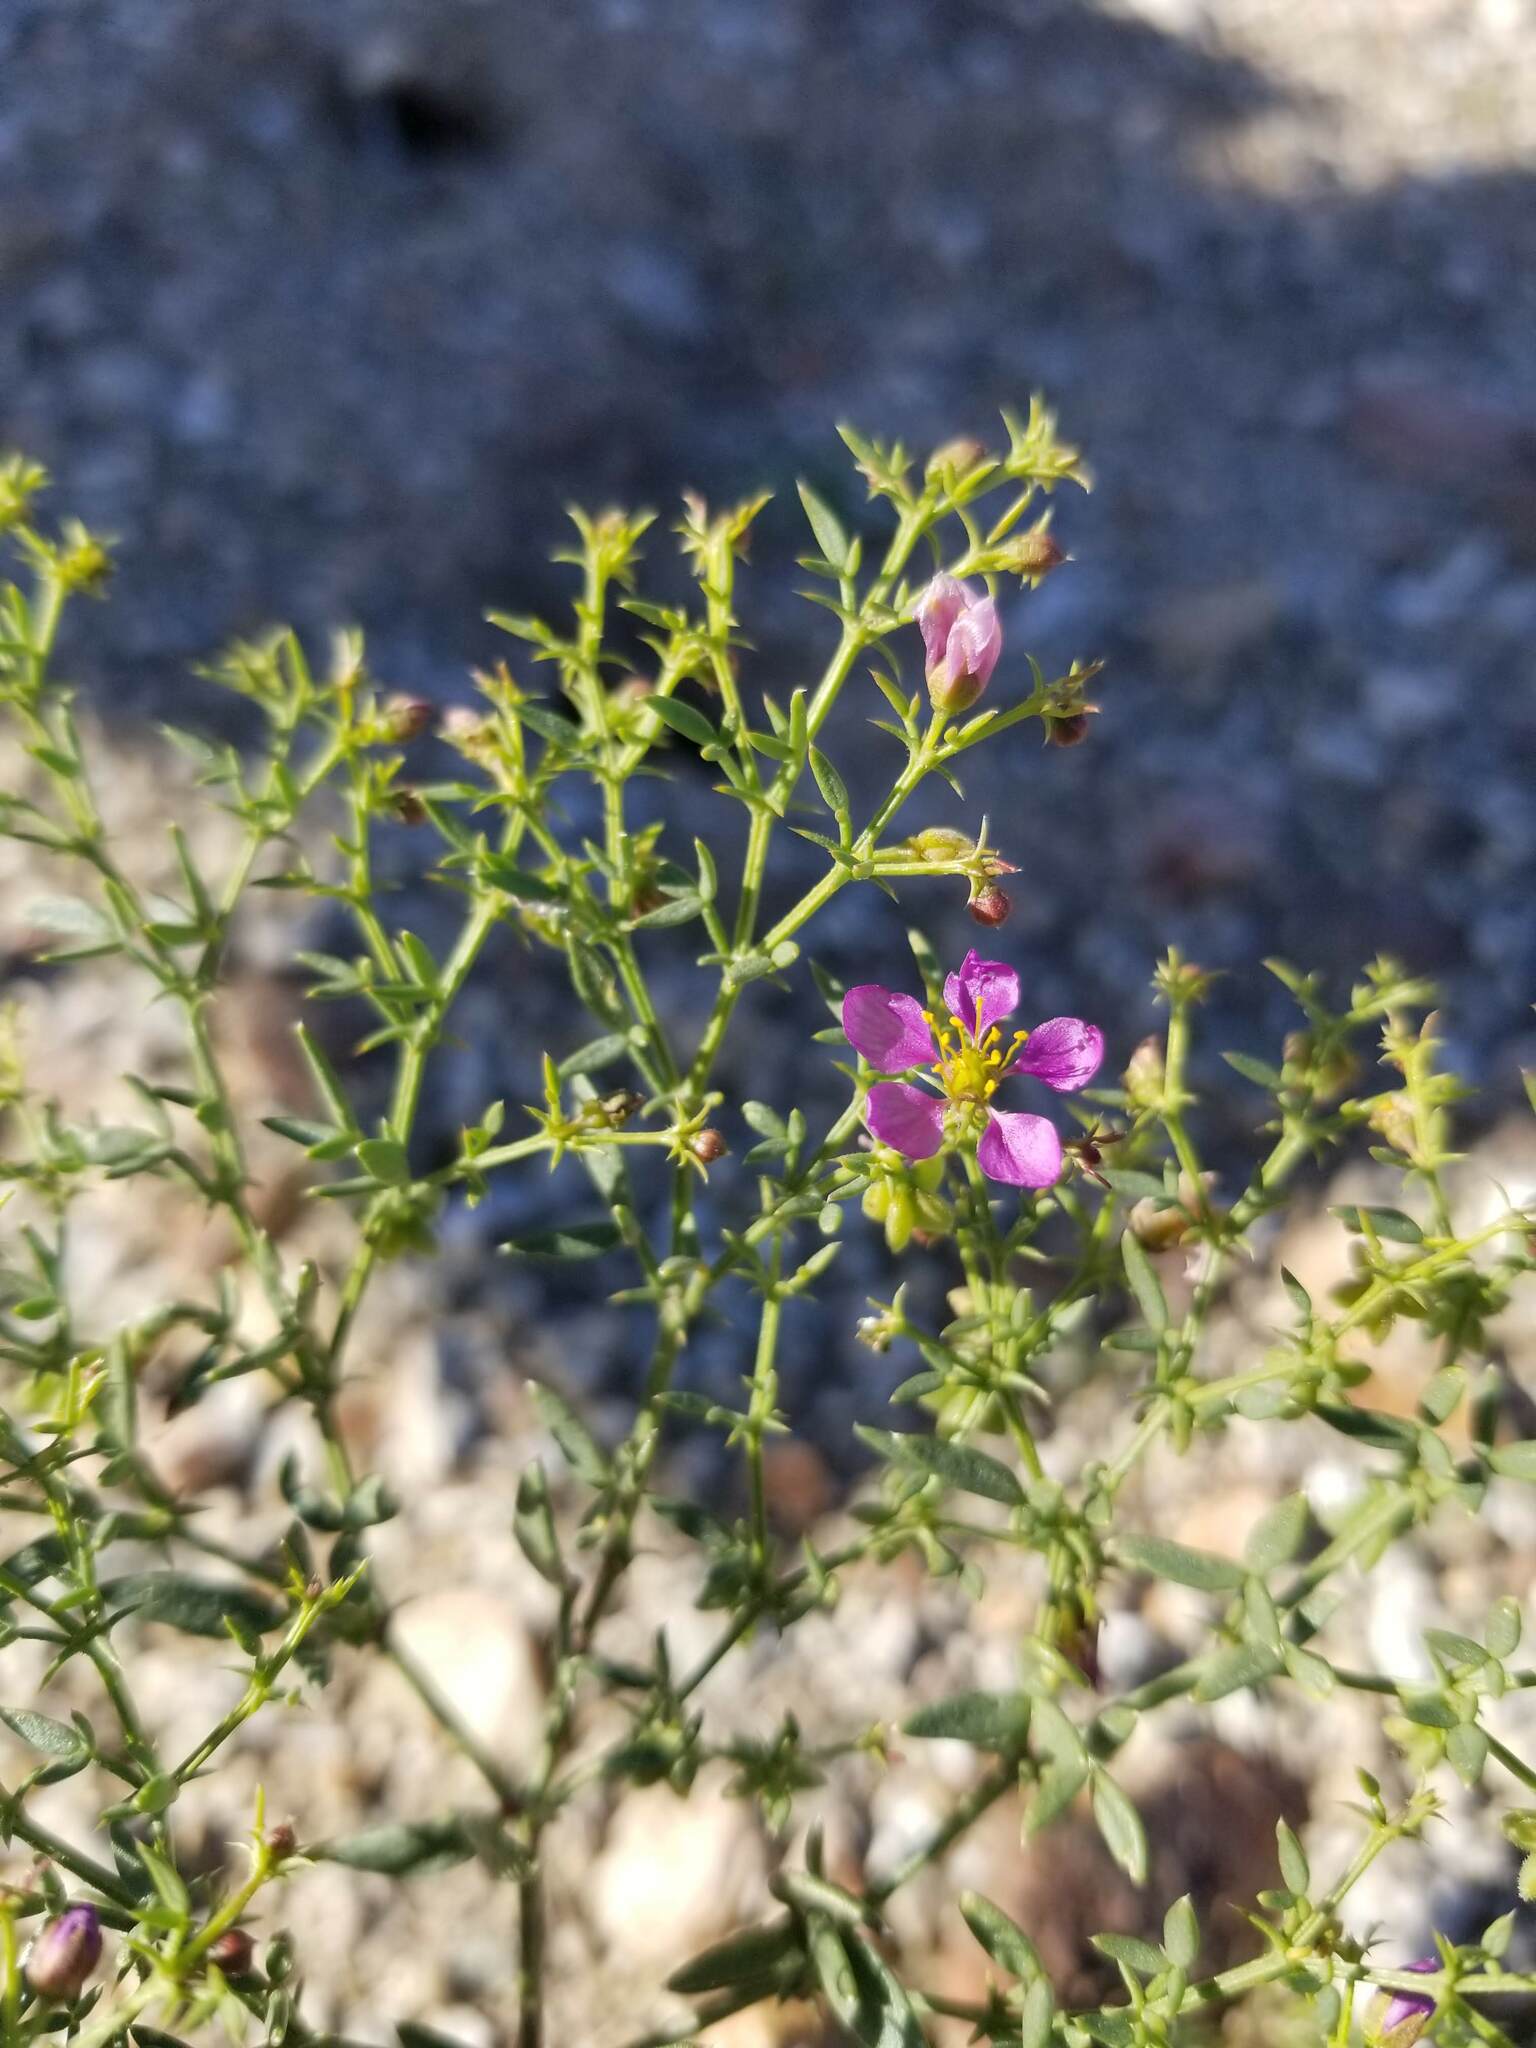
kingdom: Plantae
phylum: Tracheophyta
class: Magnoliopsida
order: Zygophyllales
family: Zygophyllaceae
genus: Fagonia
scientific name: Fagonia laevis
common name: California fagonbush
